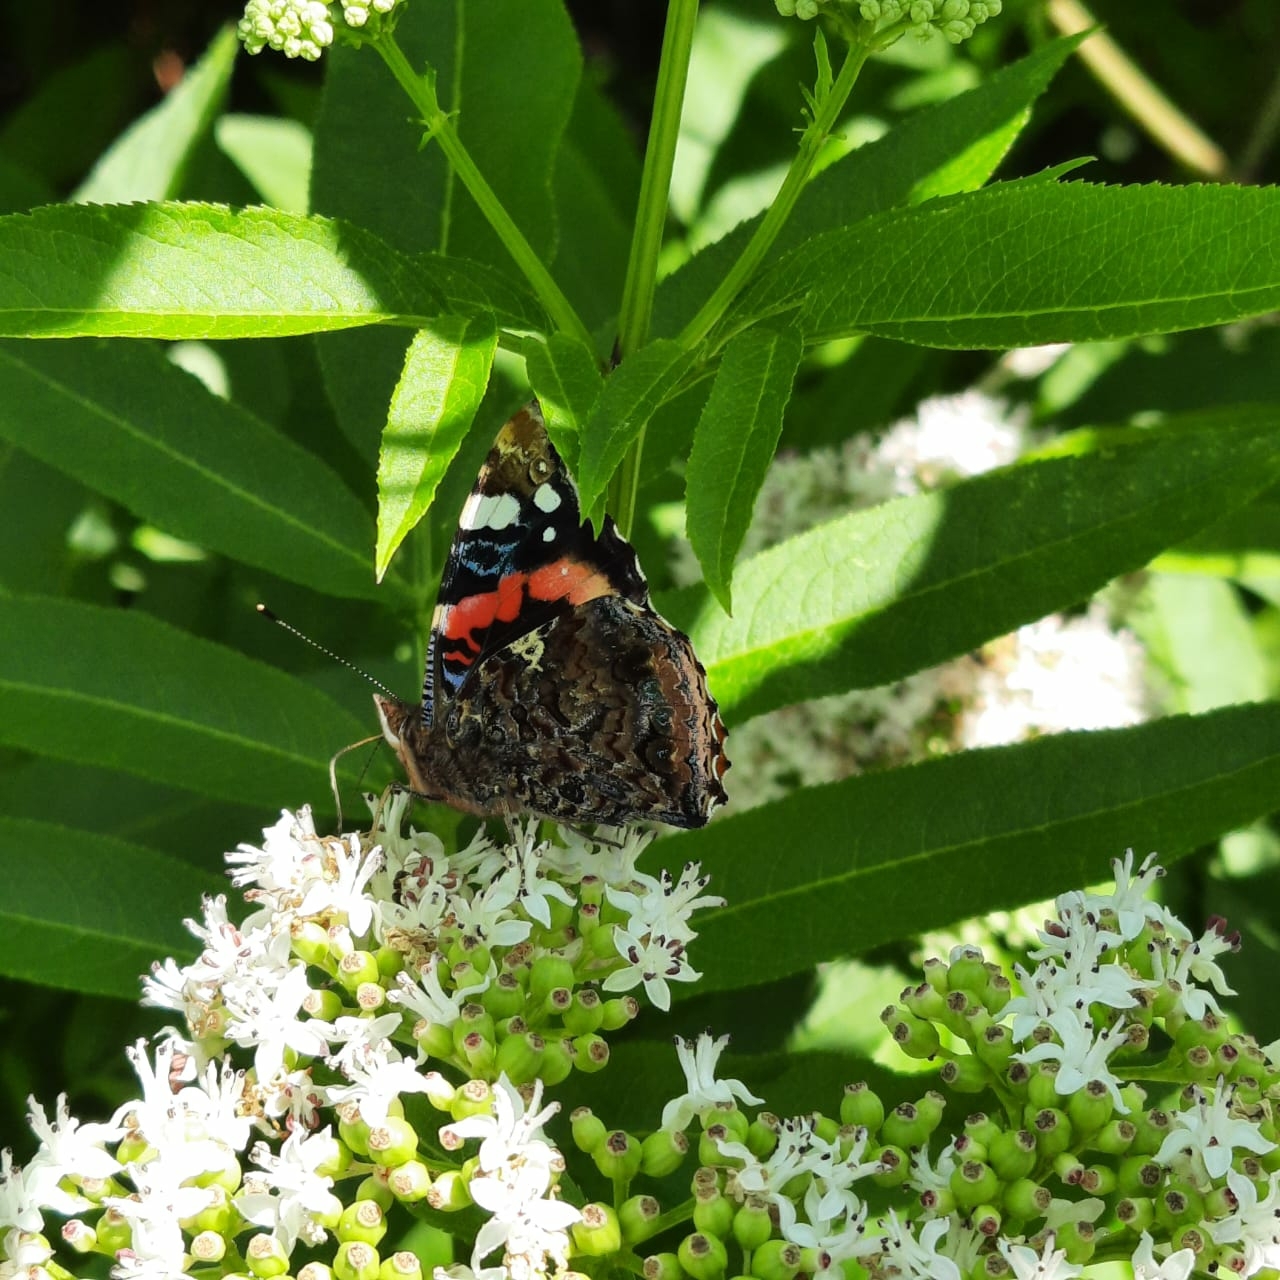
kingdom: Animalia
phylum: Arthropoda
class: Insecta
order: Lepidoptera
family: Nymphalidae
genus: Vanessa
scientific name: Vanessa atalanta
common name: Red admiral
